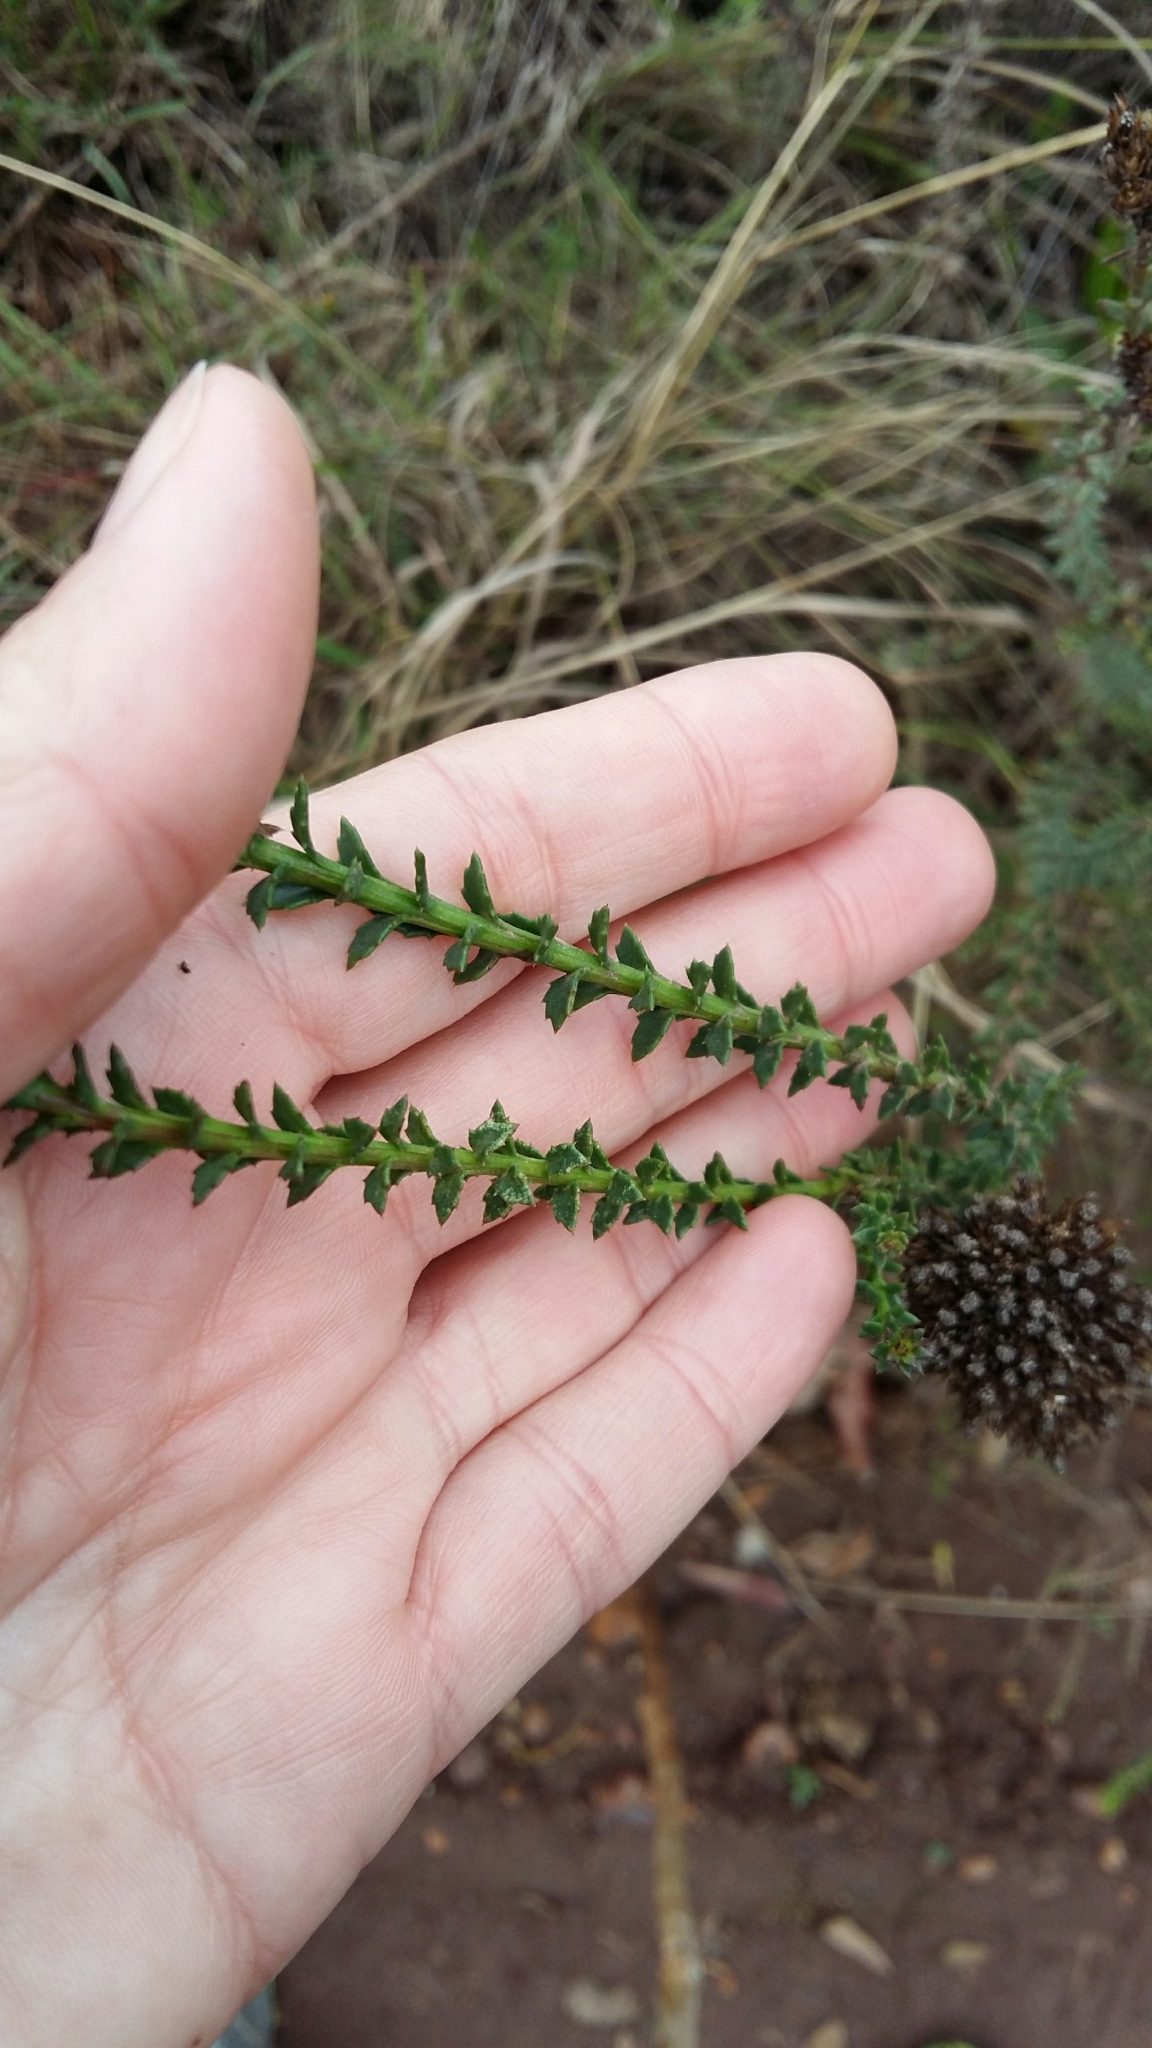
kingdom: Plantae
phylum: Tracheophyta
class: Magnoliopsida
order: Asterales
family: Asteraceae
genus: Athanasia
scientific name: Athanasia dentata
